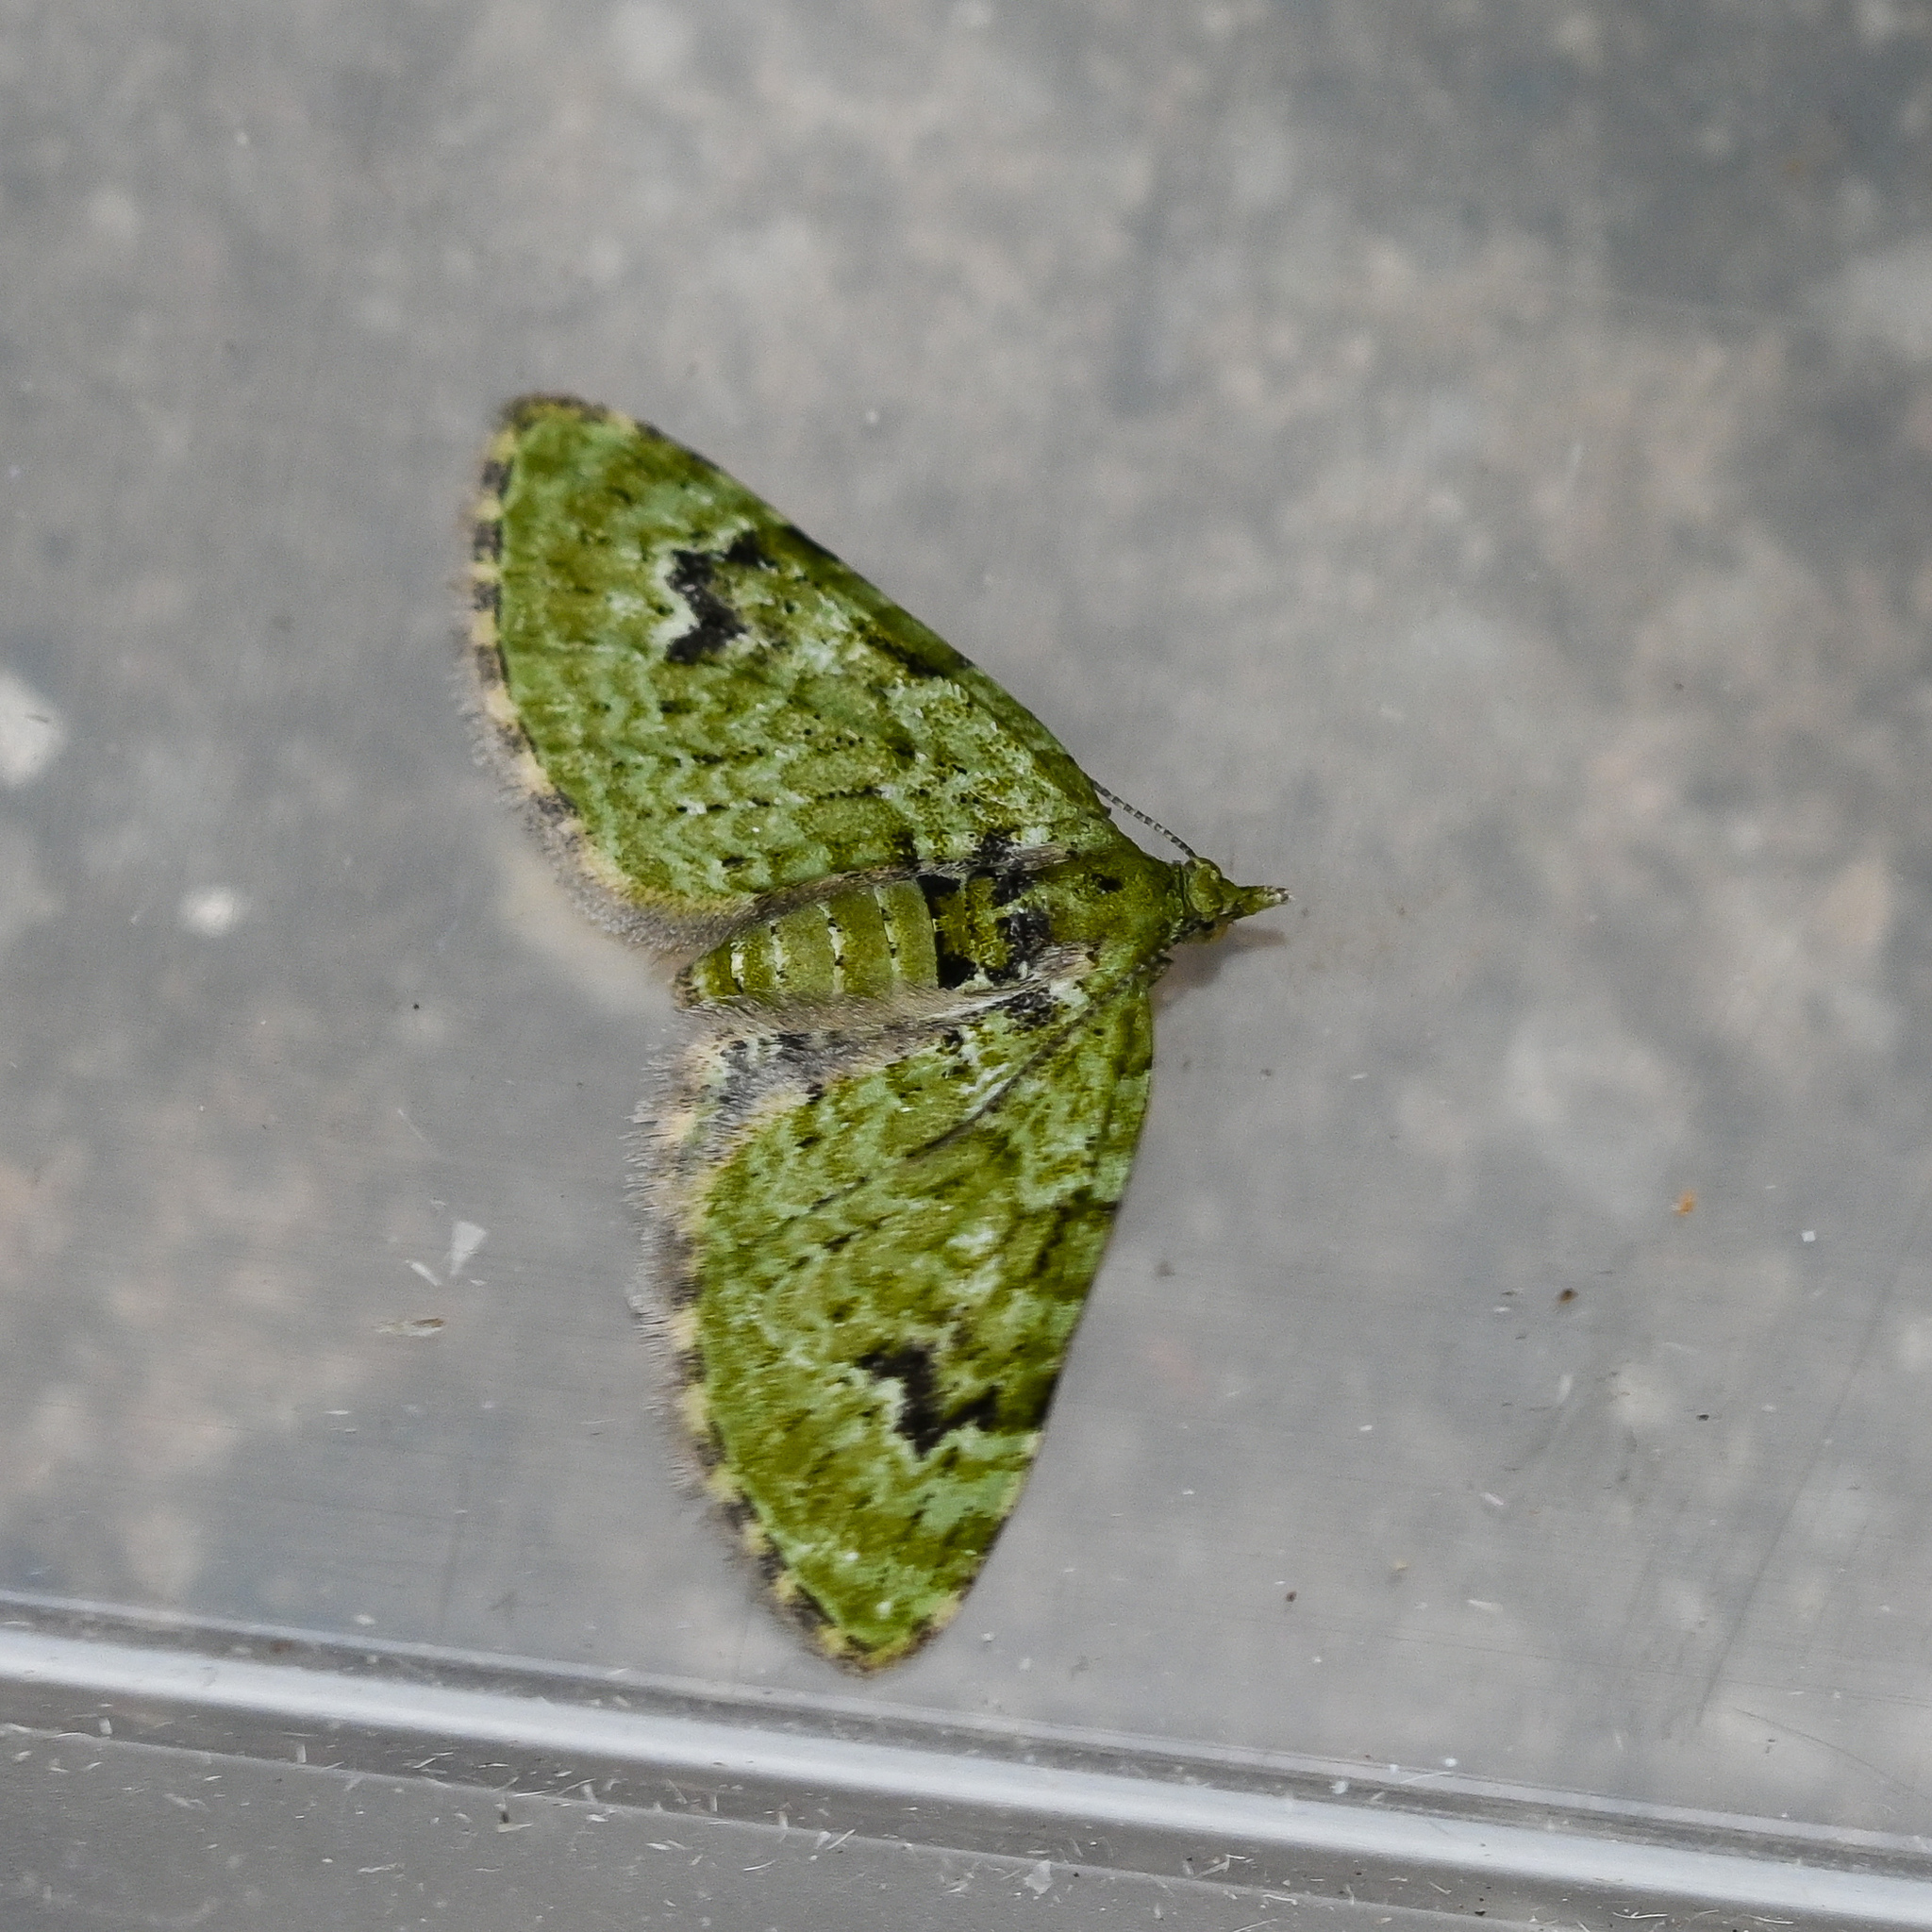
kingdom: Animalia
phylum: Arthropoda
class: Insecta
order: Lepidoptera
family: Geometridae
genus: Chloroclystis
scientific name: Chloroclystis v-ata
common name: V-pug
